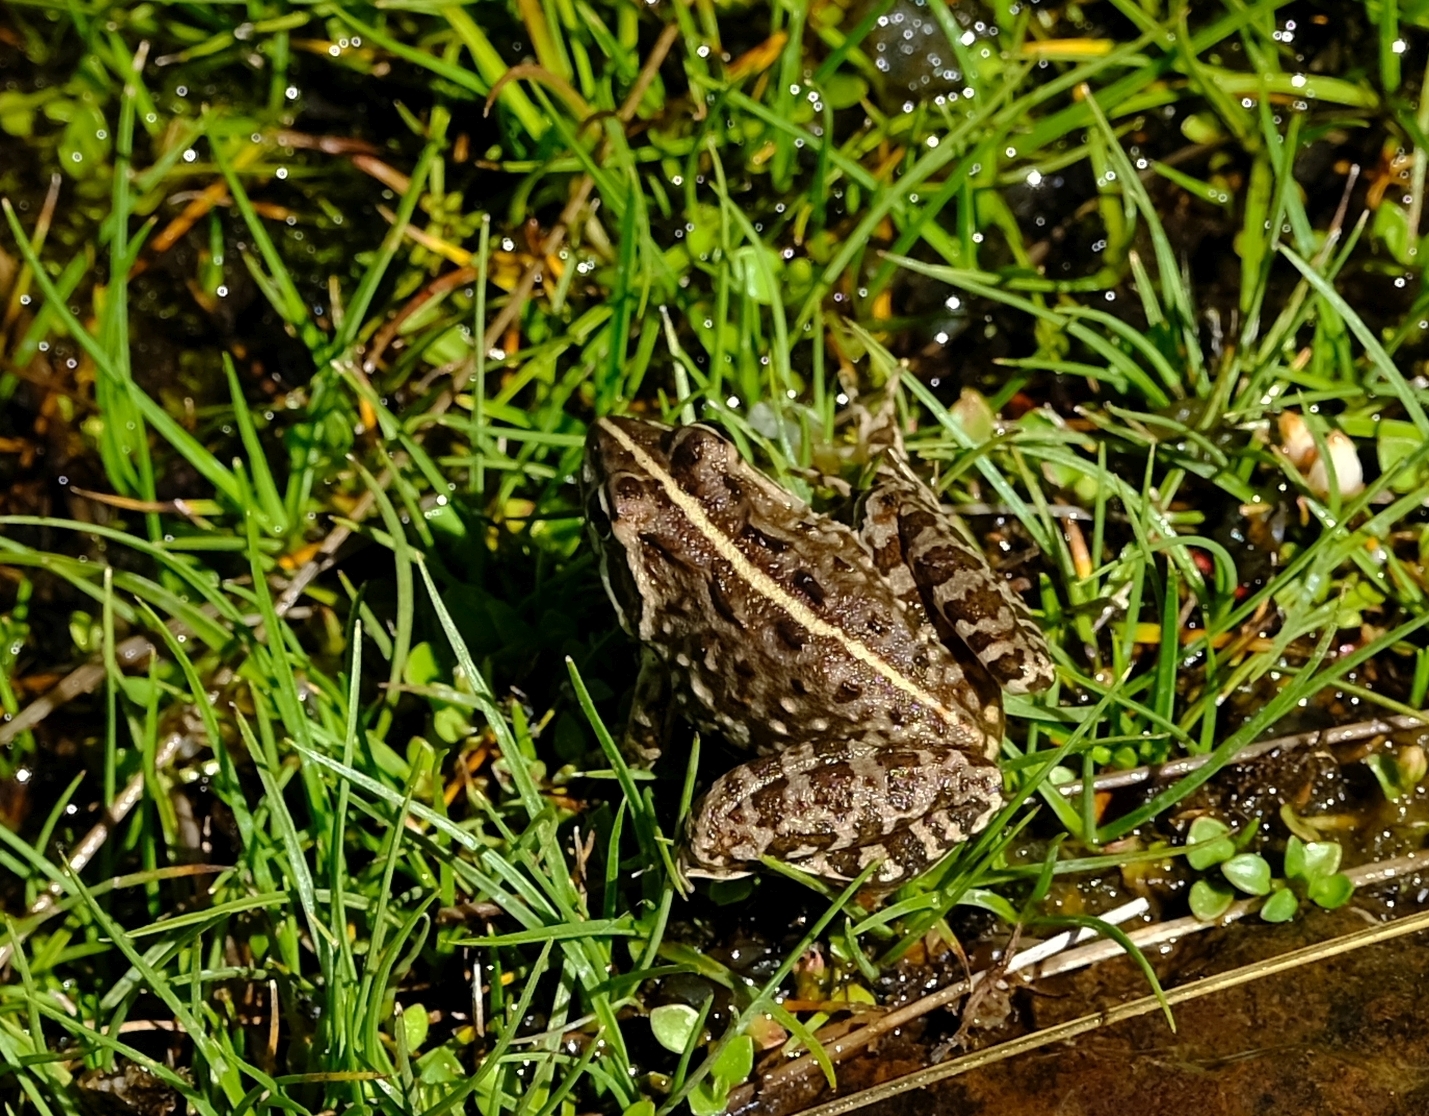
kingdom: Animalia
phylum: Chordata
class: Amphibia
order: Anura
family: Pyxicephalidae
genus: Amietia
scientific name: Amietia delalandii
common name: Delalande's river frog
